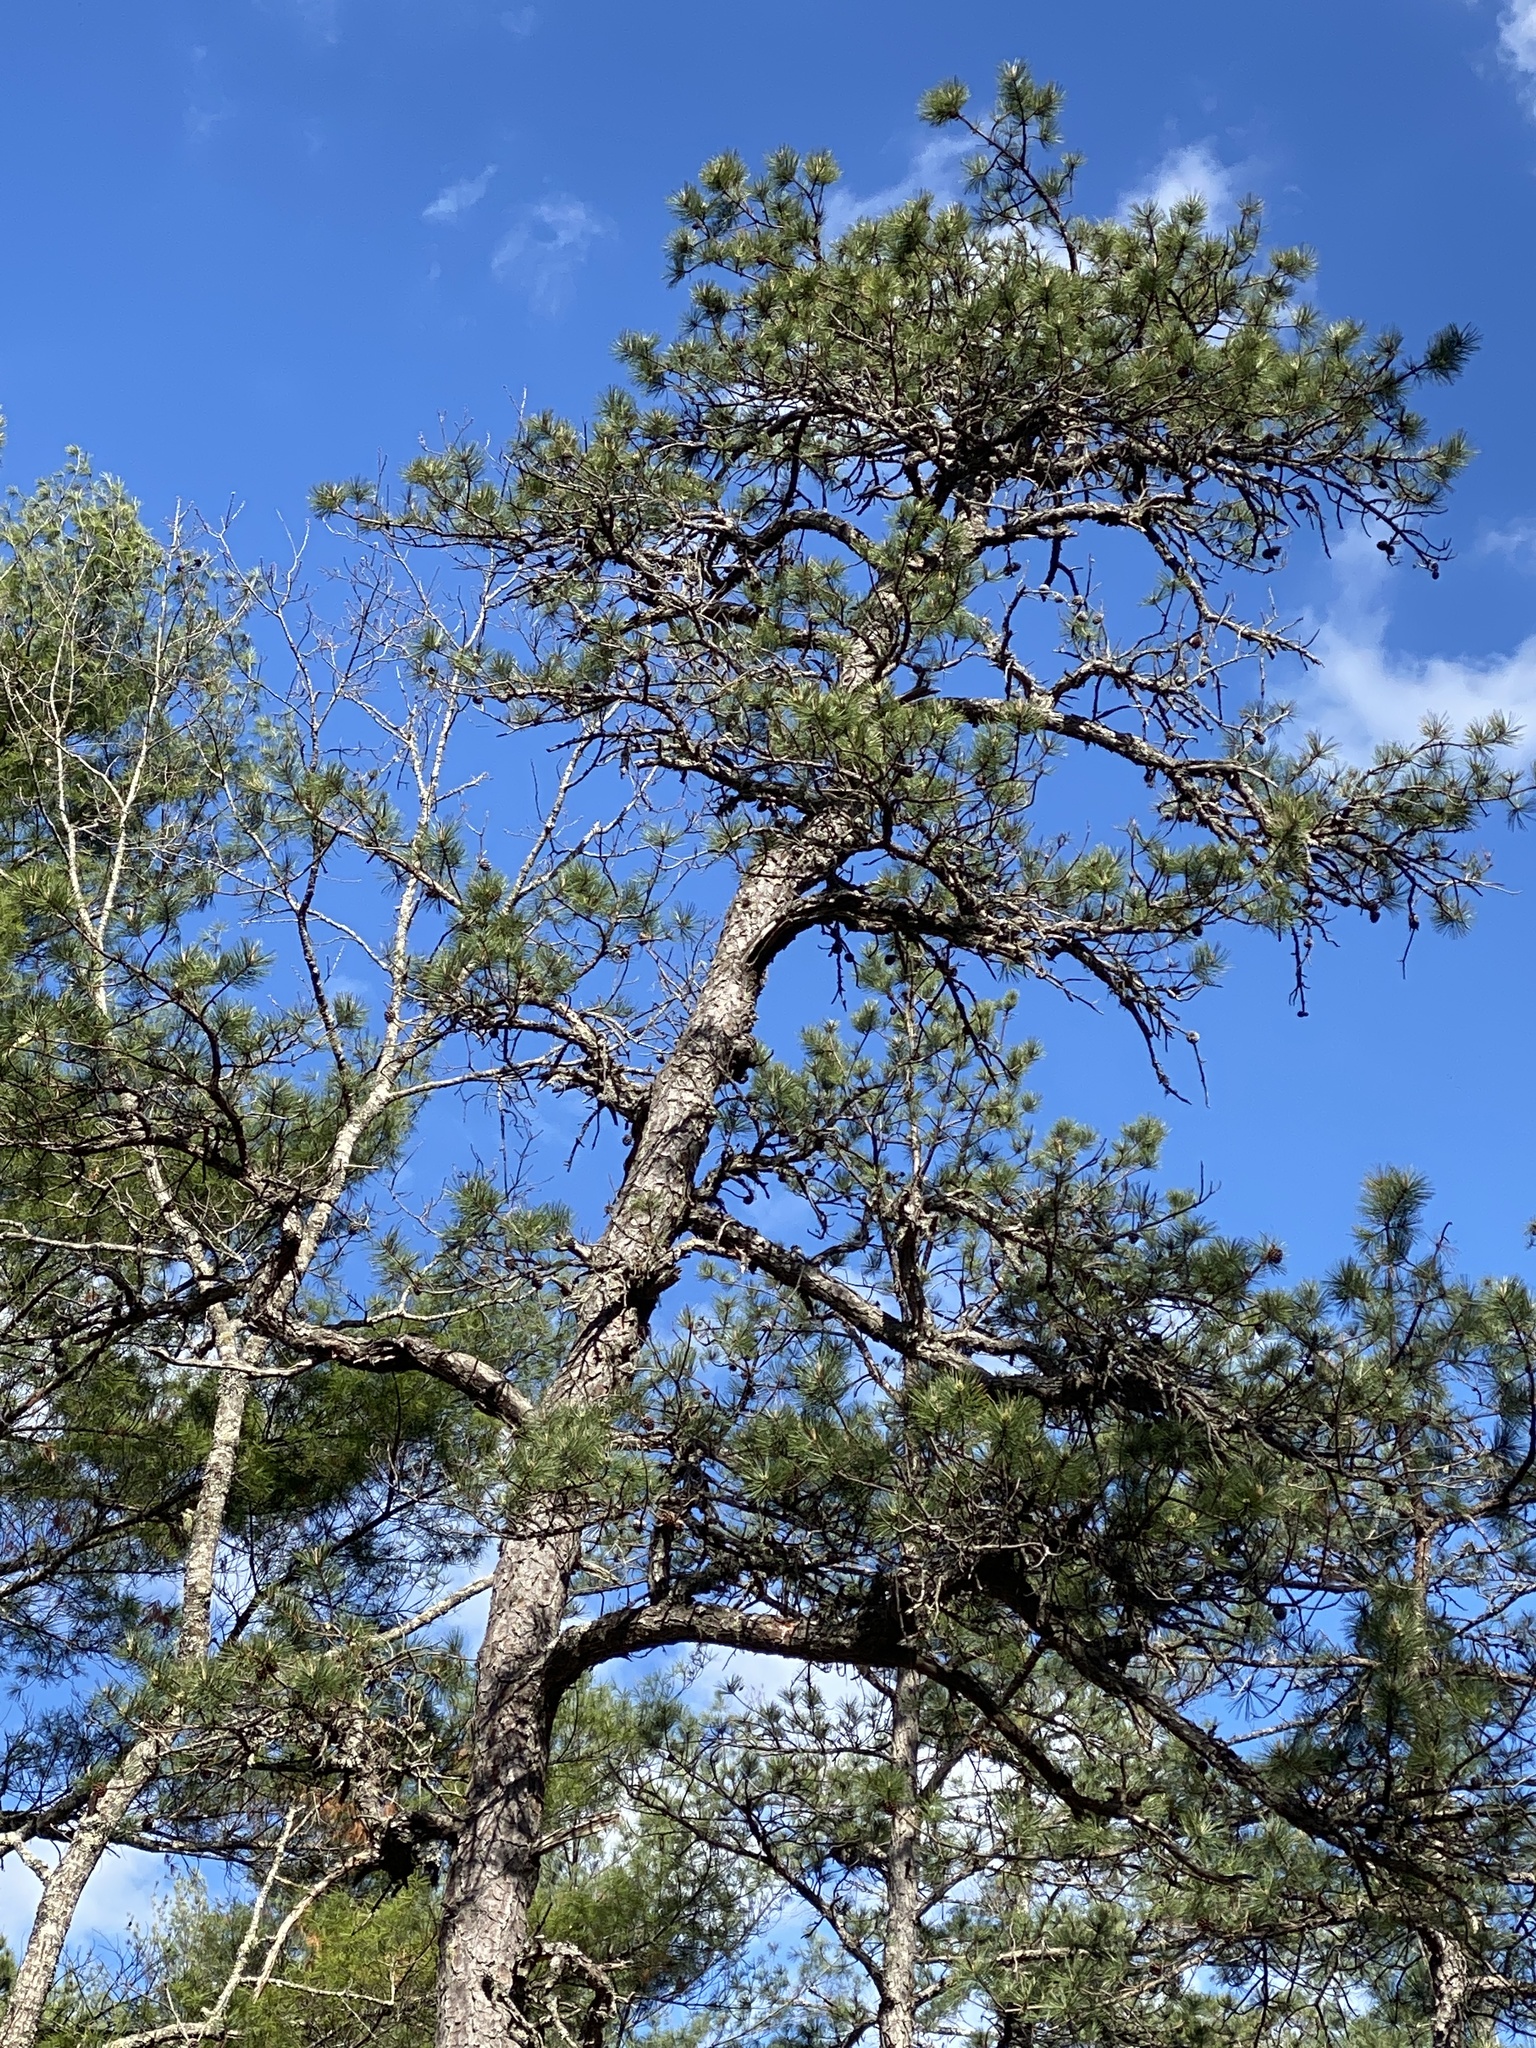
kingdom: Plantae
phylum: Tracheophyta
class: Pinopsida
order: Pinales
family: Pinaceae
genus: Pinus
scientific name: Pinus rigida
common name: Pitch pine
